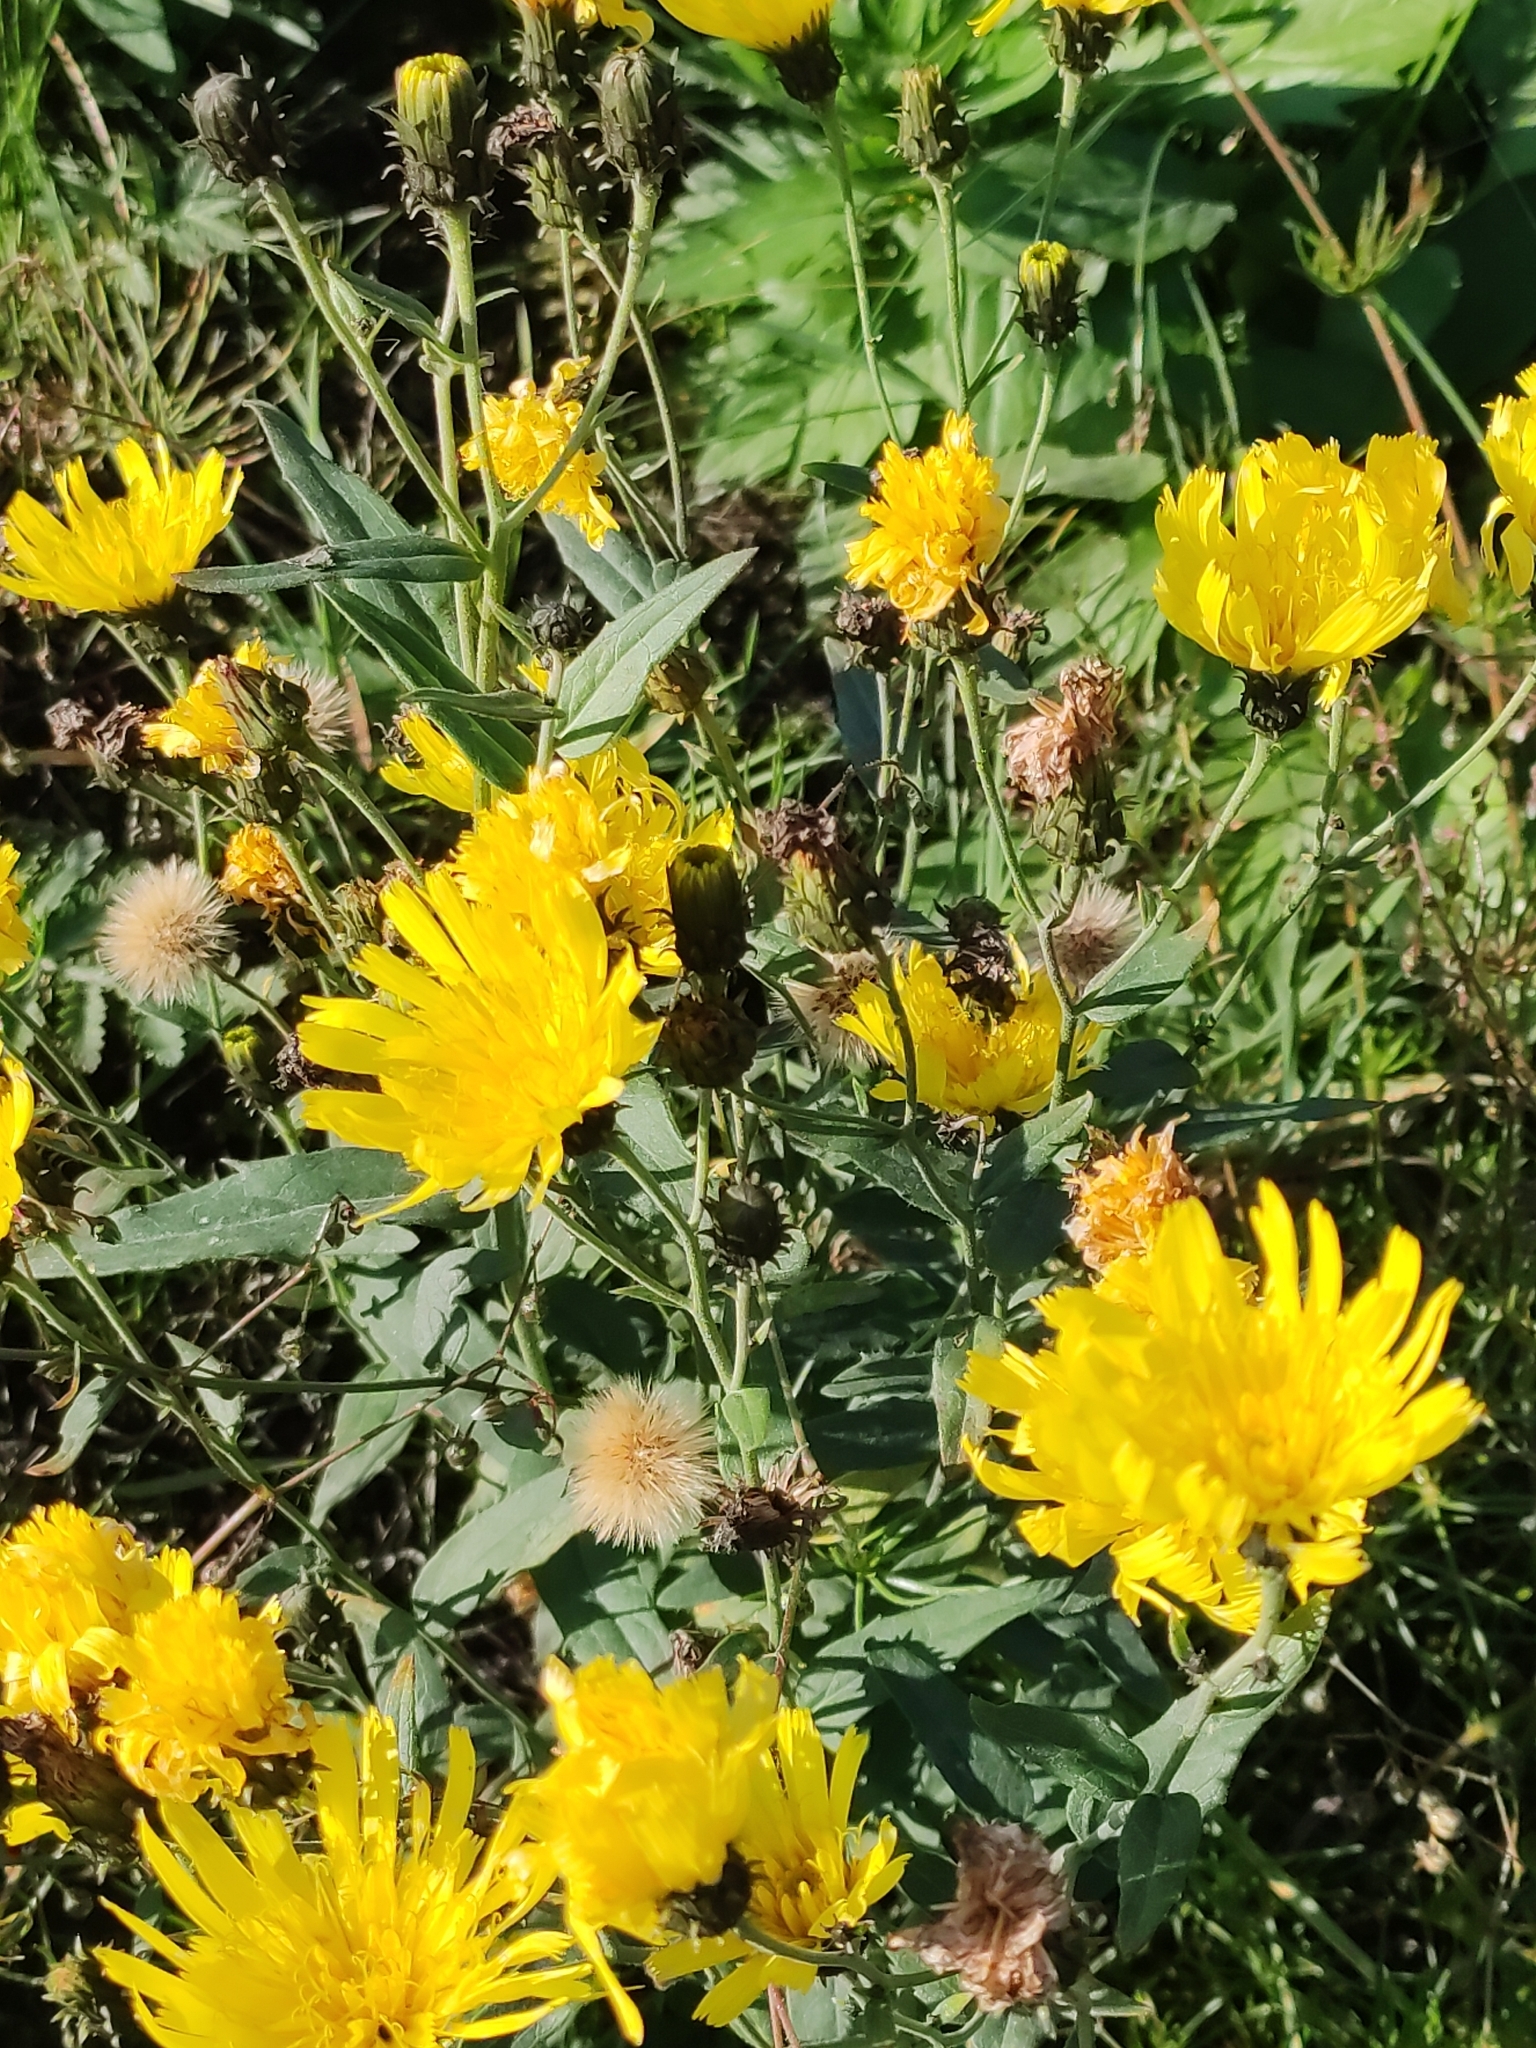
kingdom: Plantae
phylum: Tracheophyta
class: Magnoliopsida
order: Asterales
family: Asteraceae
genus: Hieracium
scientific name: Hieracium umbellatum
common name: Northern hawkweed
